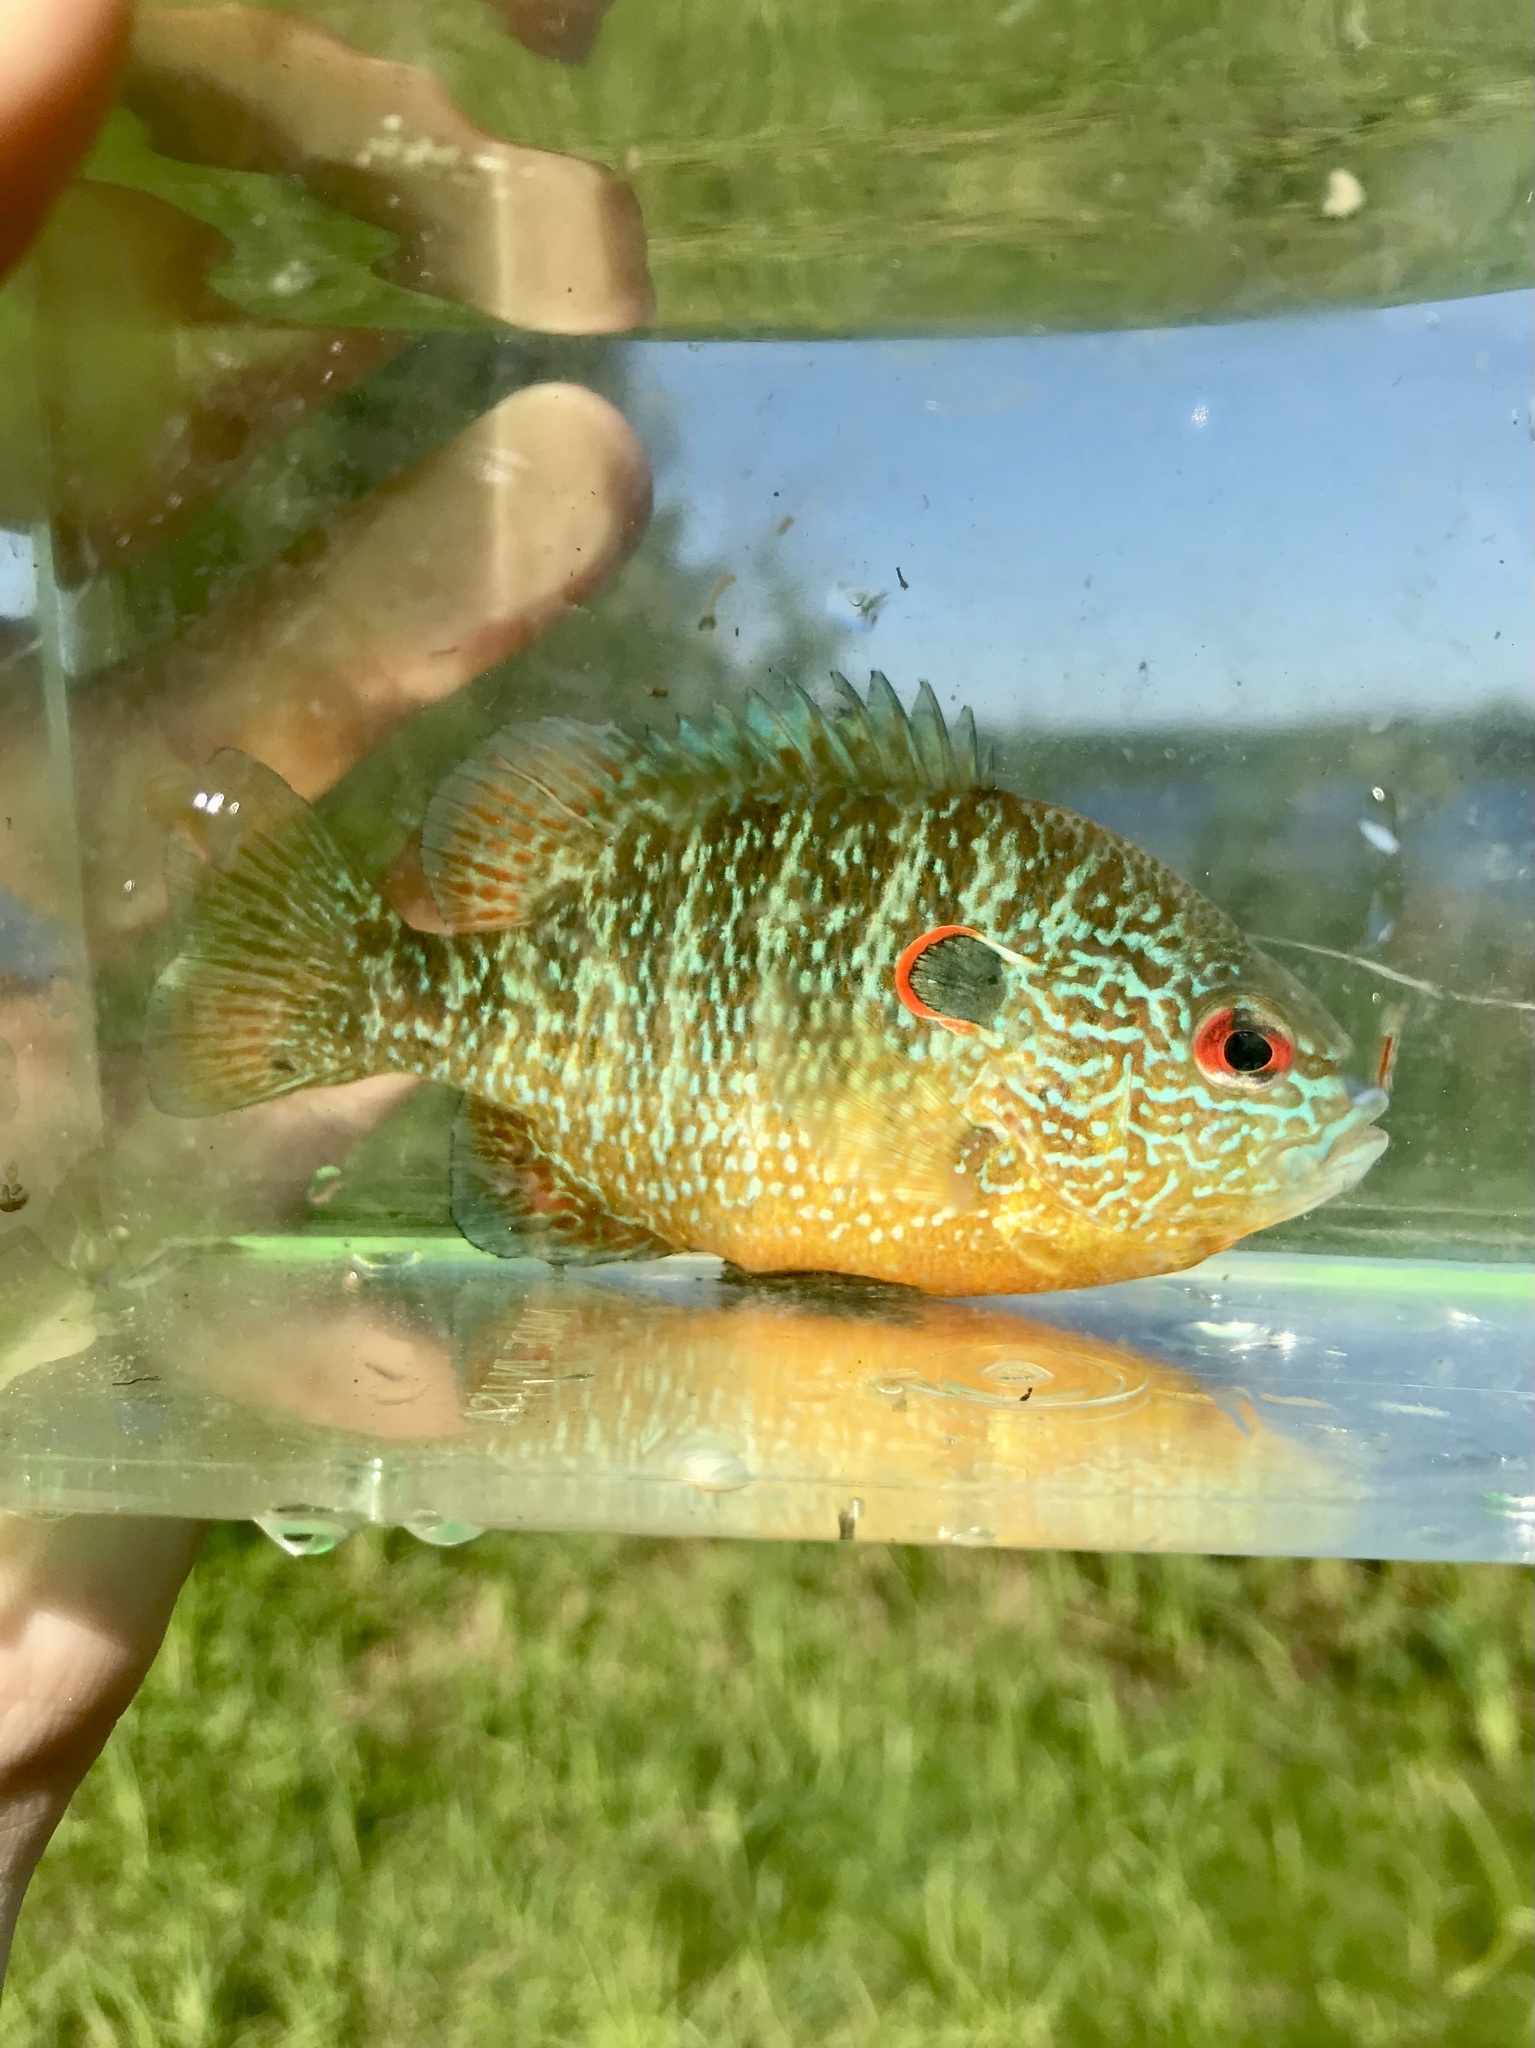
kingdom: Animalia
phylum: Chordata
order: Perciformes
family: Centrarchidae
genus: Lepomis
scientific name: Lepomis peltastes
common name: Northern sunfish
